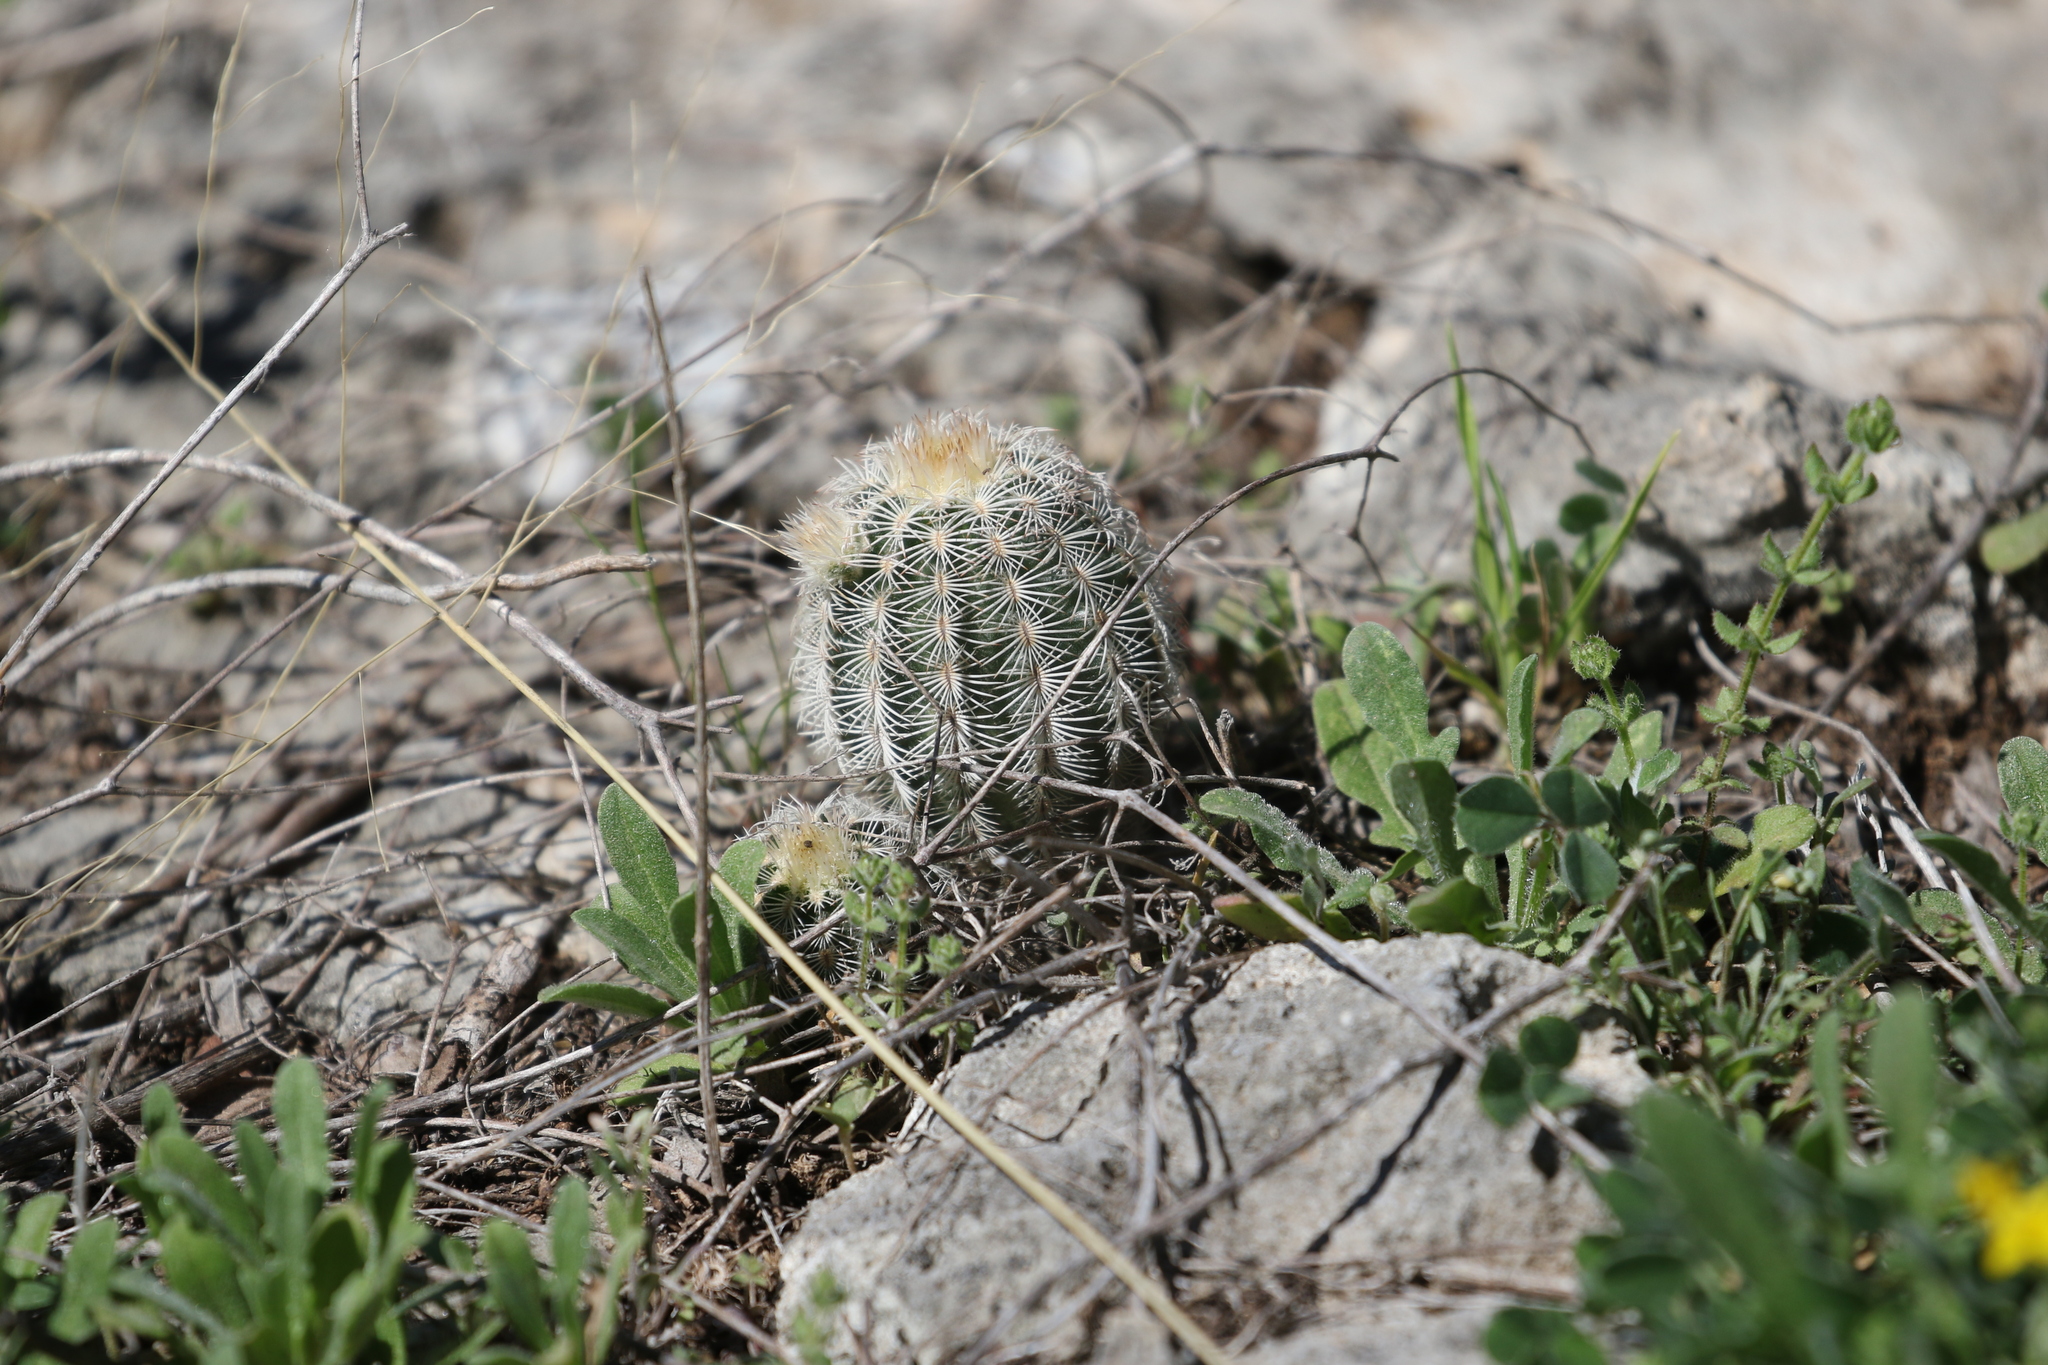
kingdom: Plantae
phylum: Tracheophyta
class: Magnoliopsida
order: Caryophyllales
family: Cactaceae
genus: Echinocereus
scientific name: Echinocereus reichenbachii
